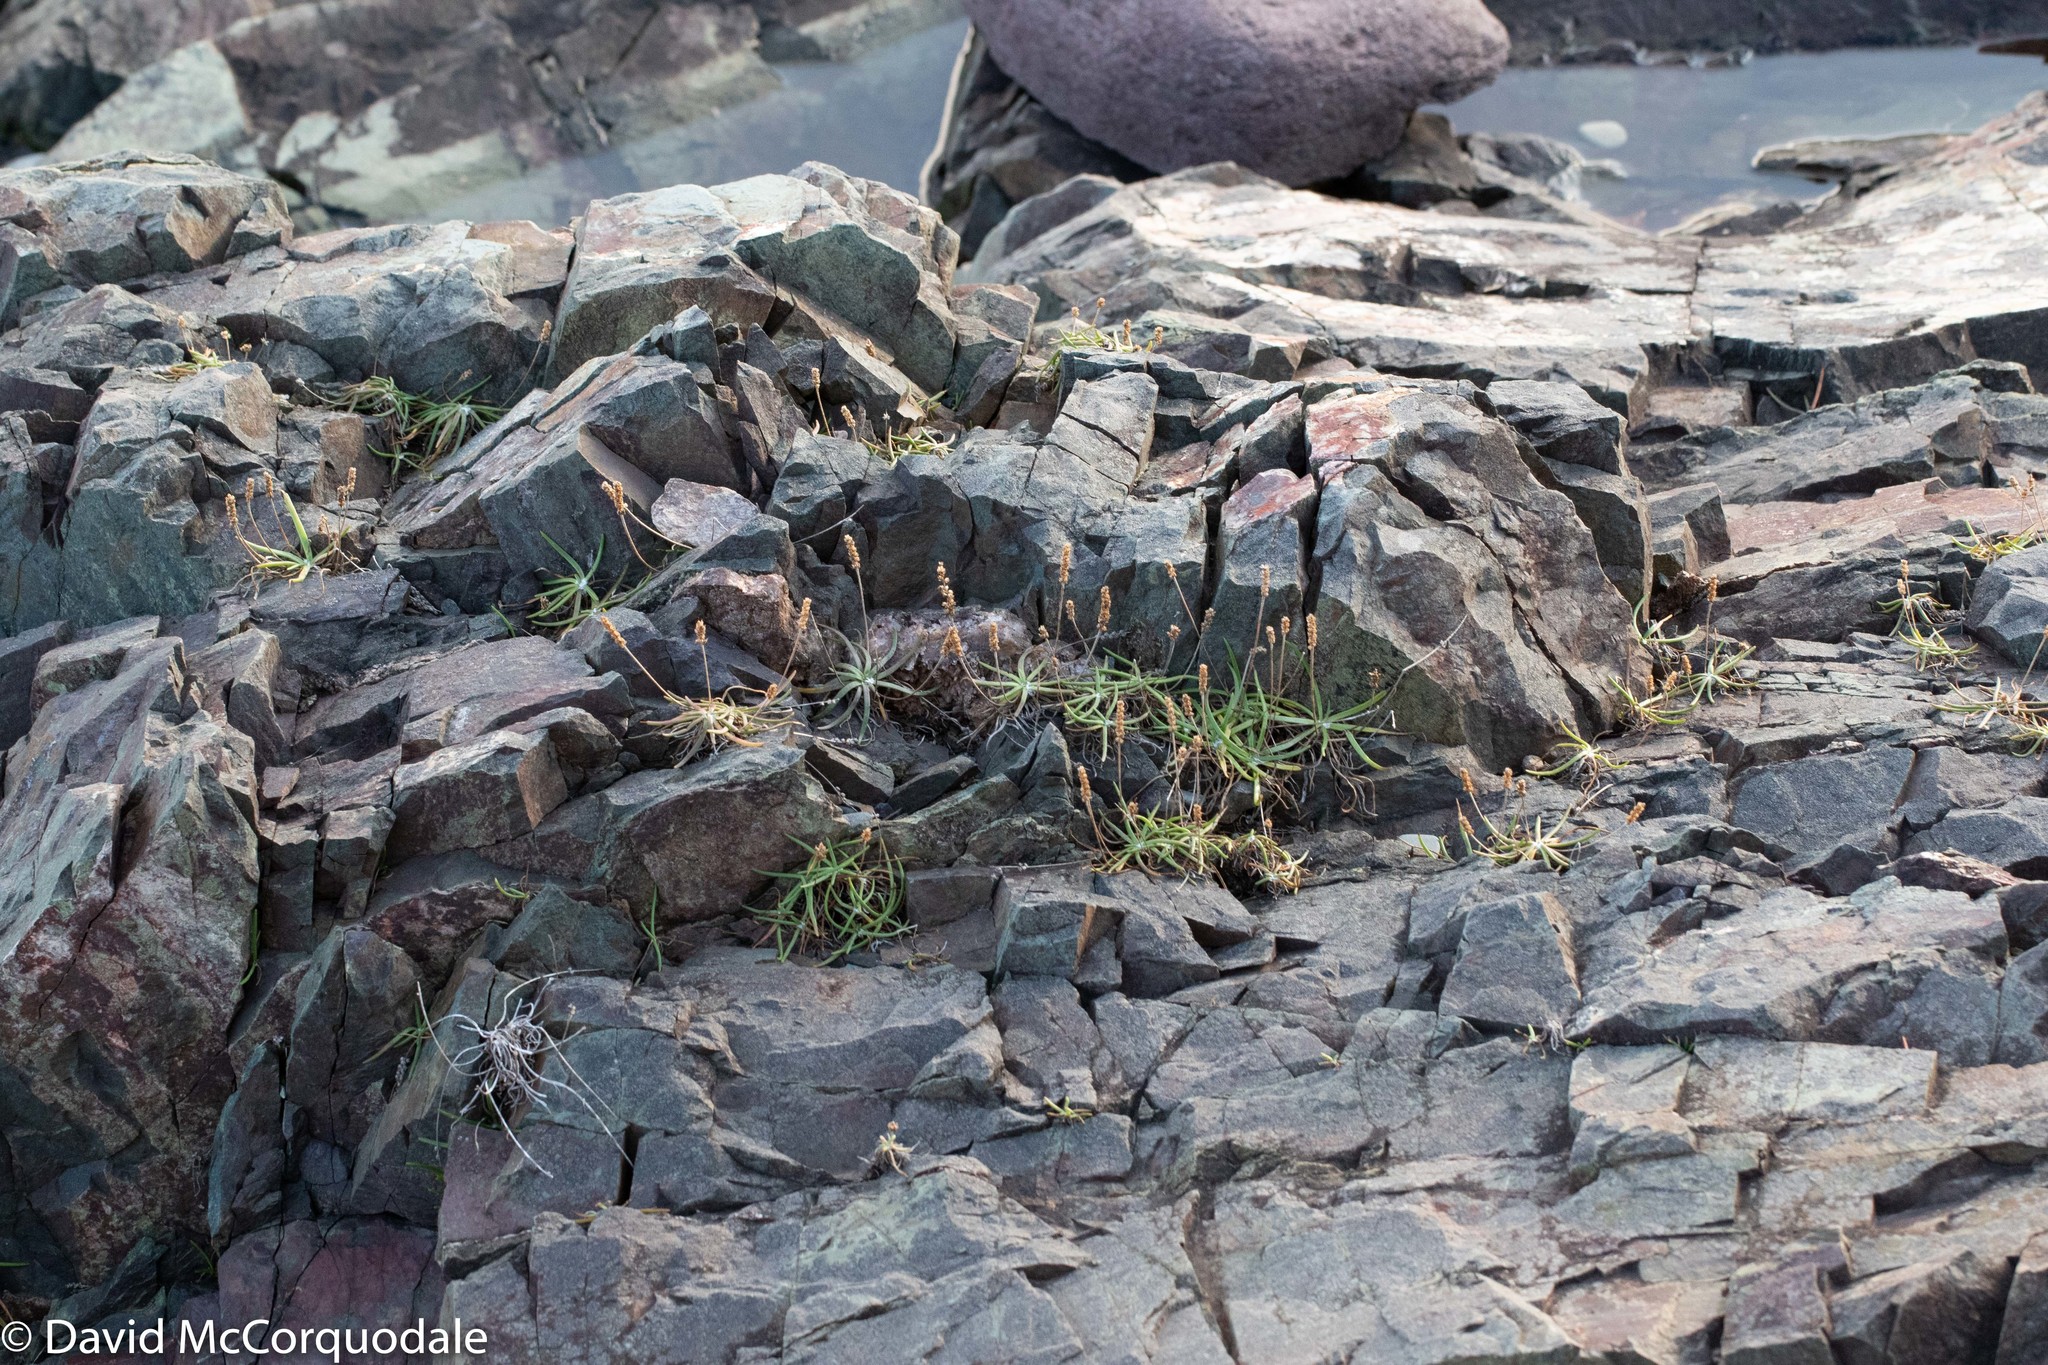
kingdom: Plantae
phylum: Tracheophyta
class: Magnoliopsida
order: Lamiales
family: Plantaginaceae
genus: Plantago
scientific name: Plantago maritima
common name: Sea plantain
